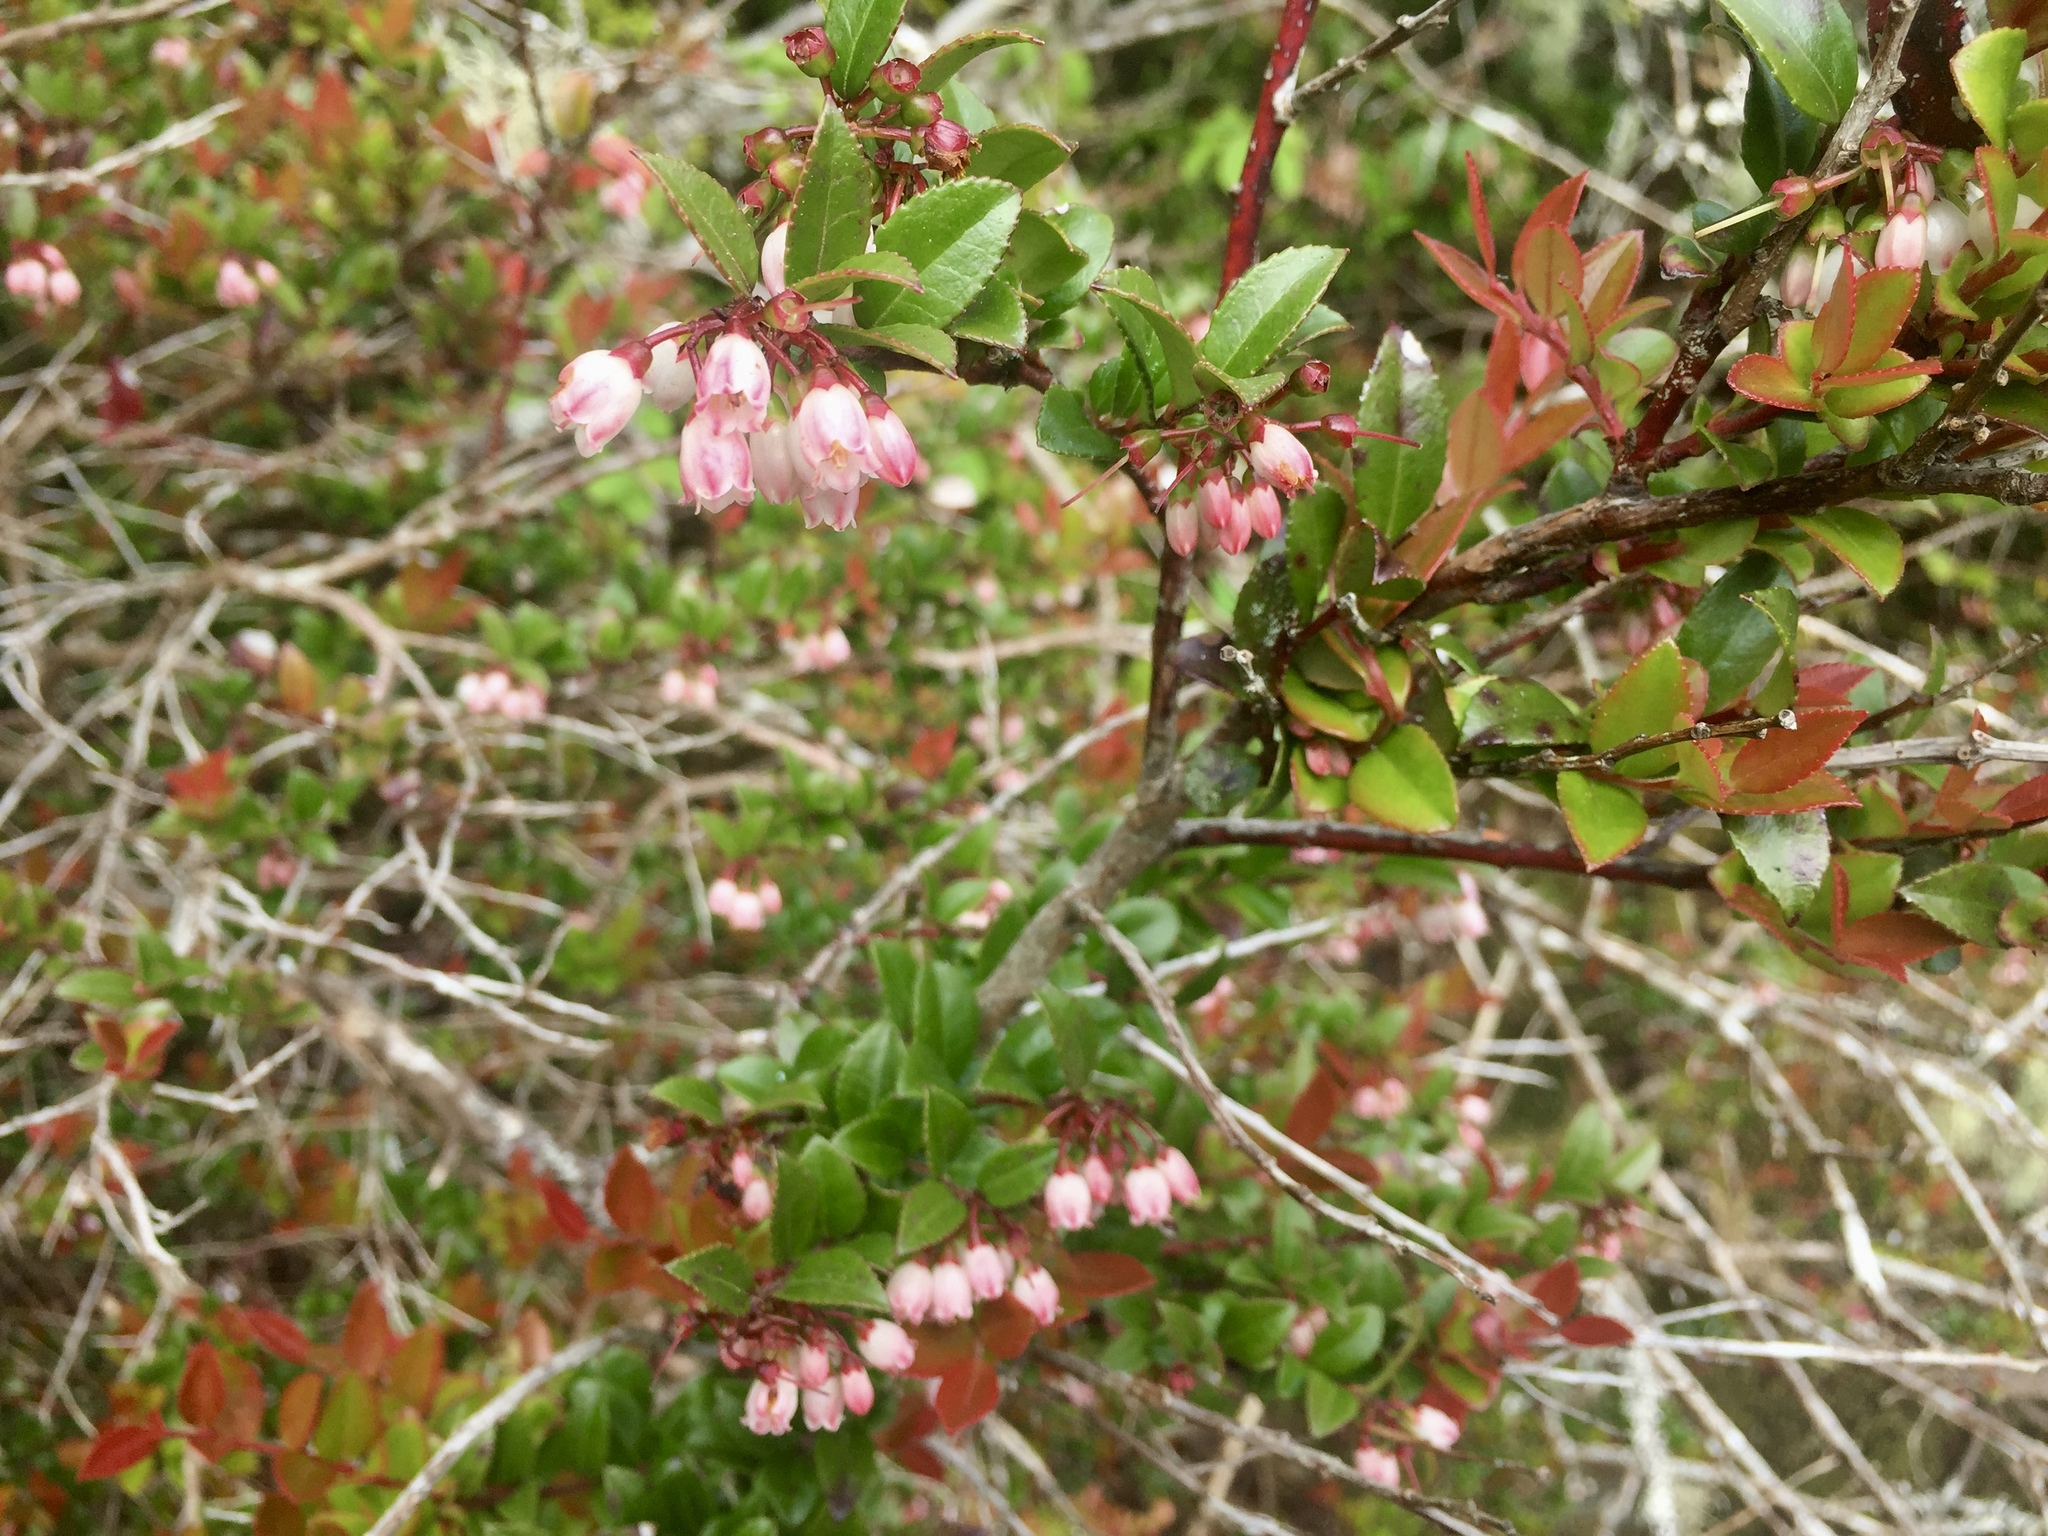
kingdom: Plantae
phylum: Tracheophyta
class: Magnoliopsida
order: Ericales
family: Ericaceae
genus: Vaccinium
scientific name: Vaccinium ovatum
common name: California-huckleberry
